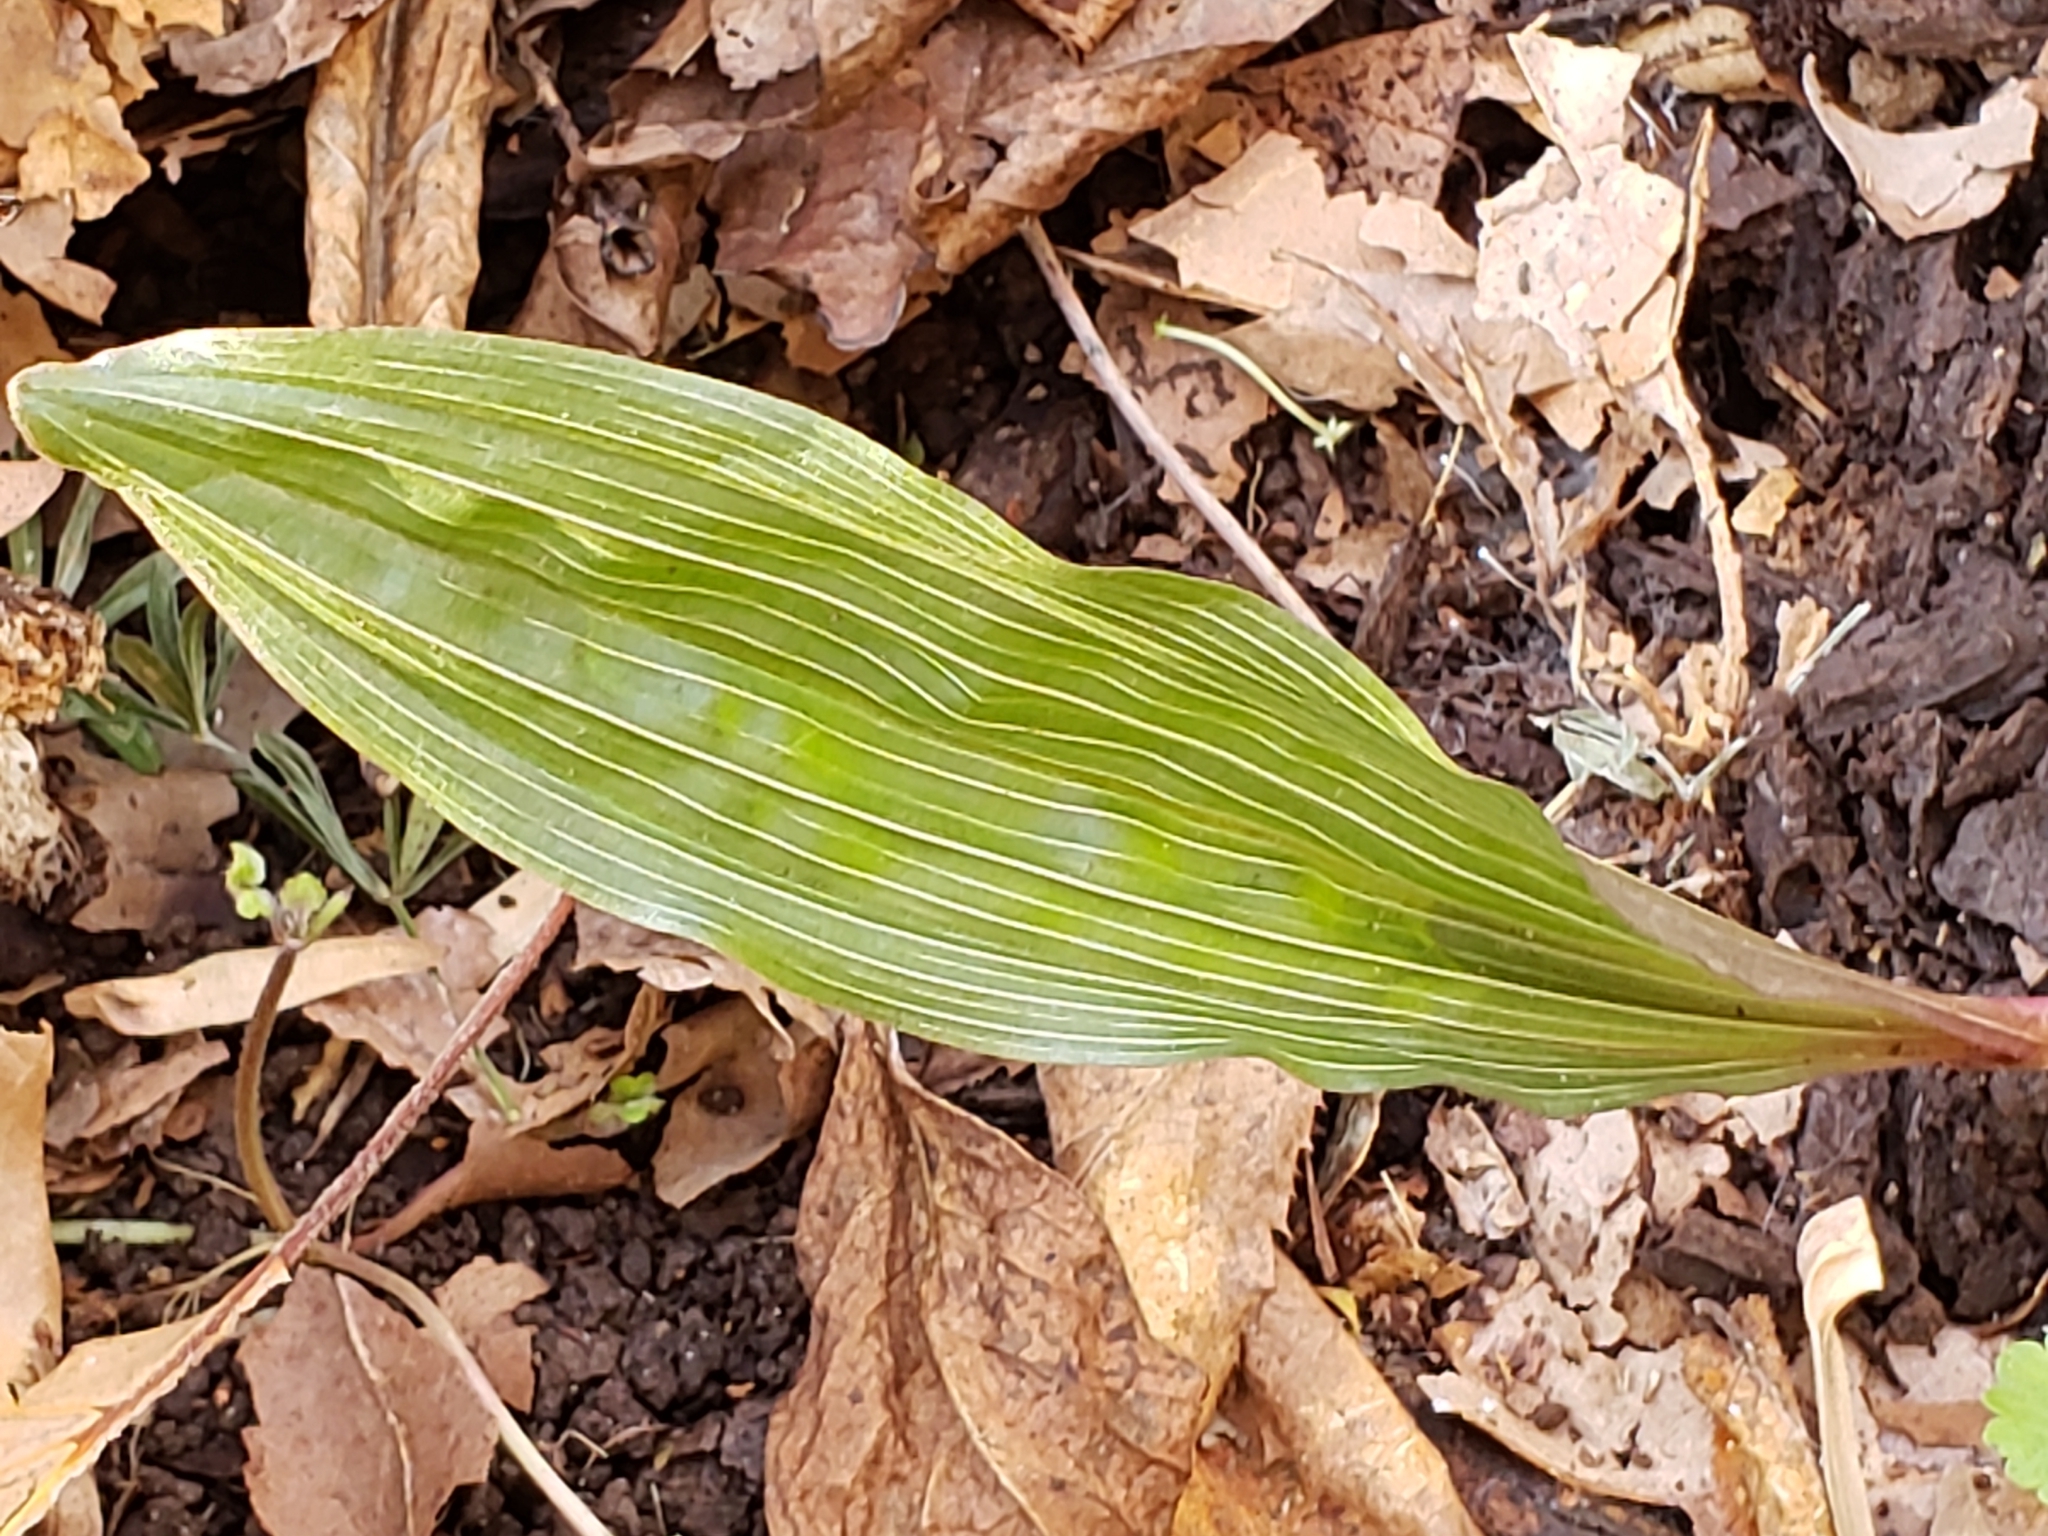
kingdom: Plantae
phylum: Tracheophyta
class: Liliopsida
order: Asparagales
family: Orchidaceae
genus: Aplectrum
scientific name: Aplectrum hyemale
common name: Adam-and-eve
